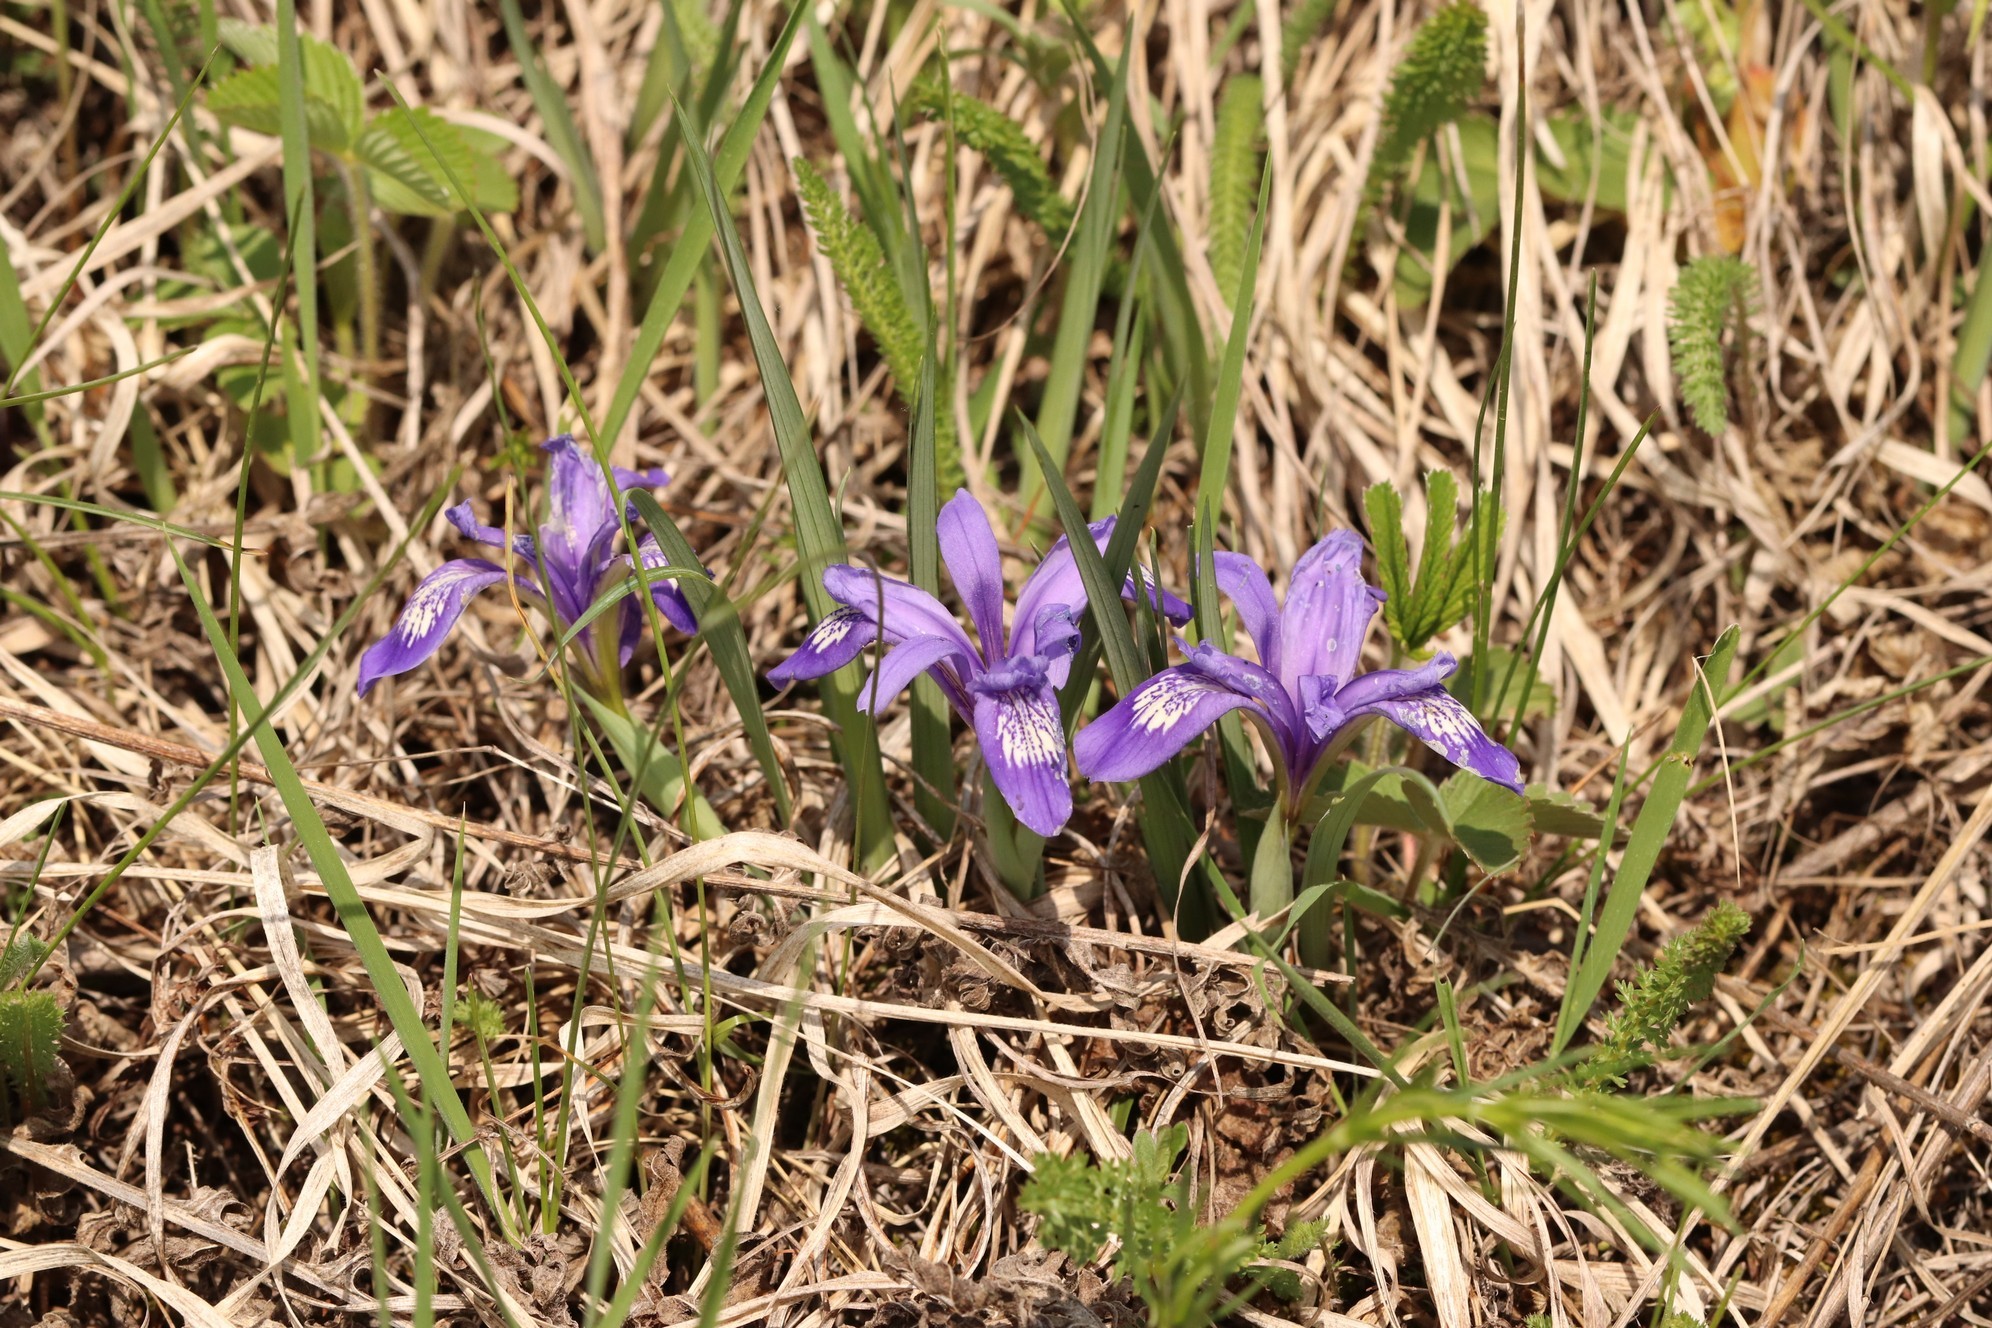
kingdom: Plantae
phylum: Tracheophyta
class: Liliopsida
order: Asparagales
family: Iridaceae
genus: Iris
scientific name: Iris ruthenica
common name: Purple-bract iris
